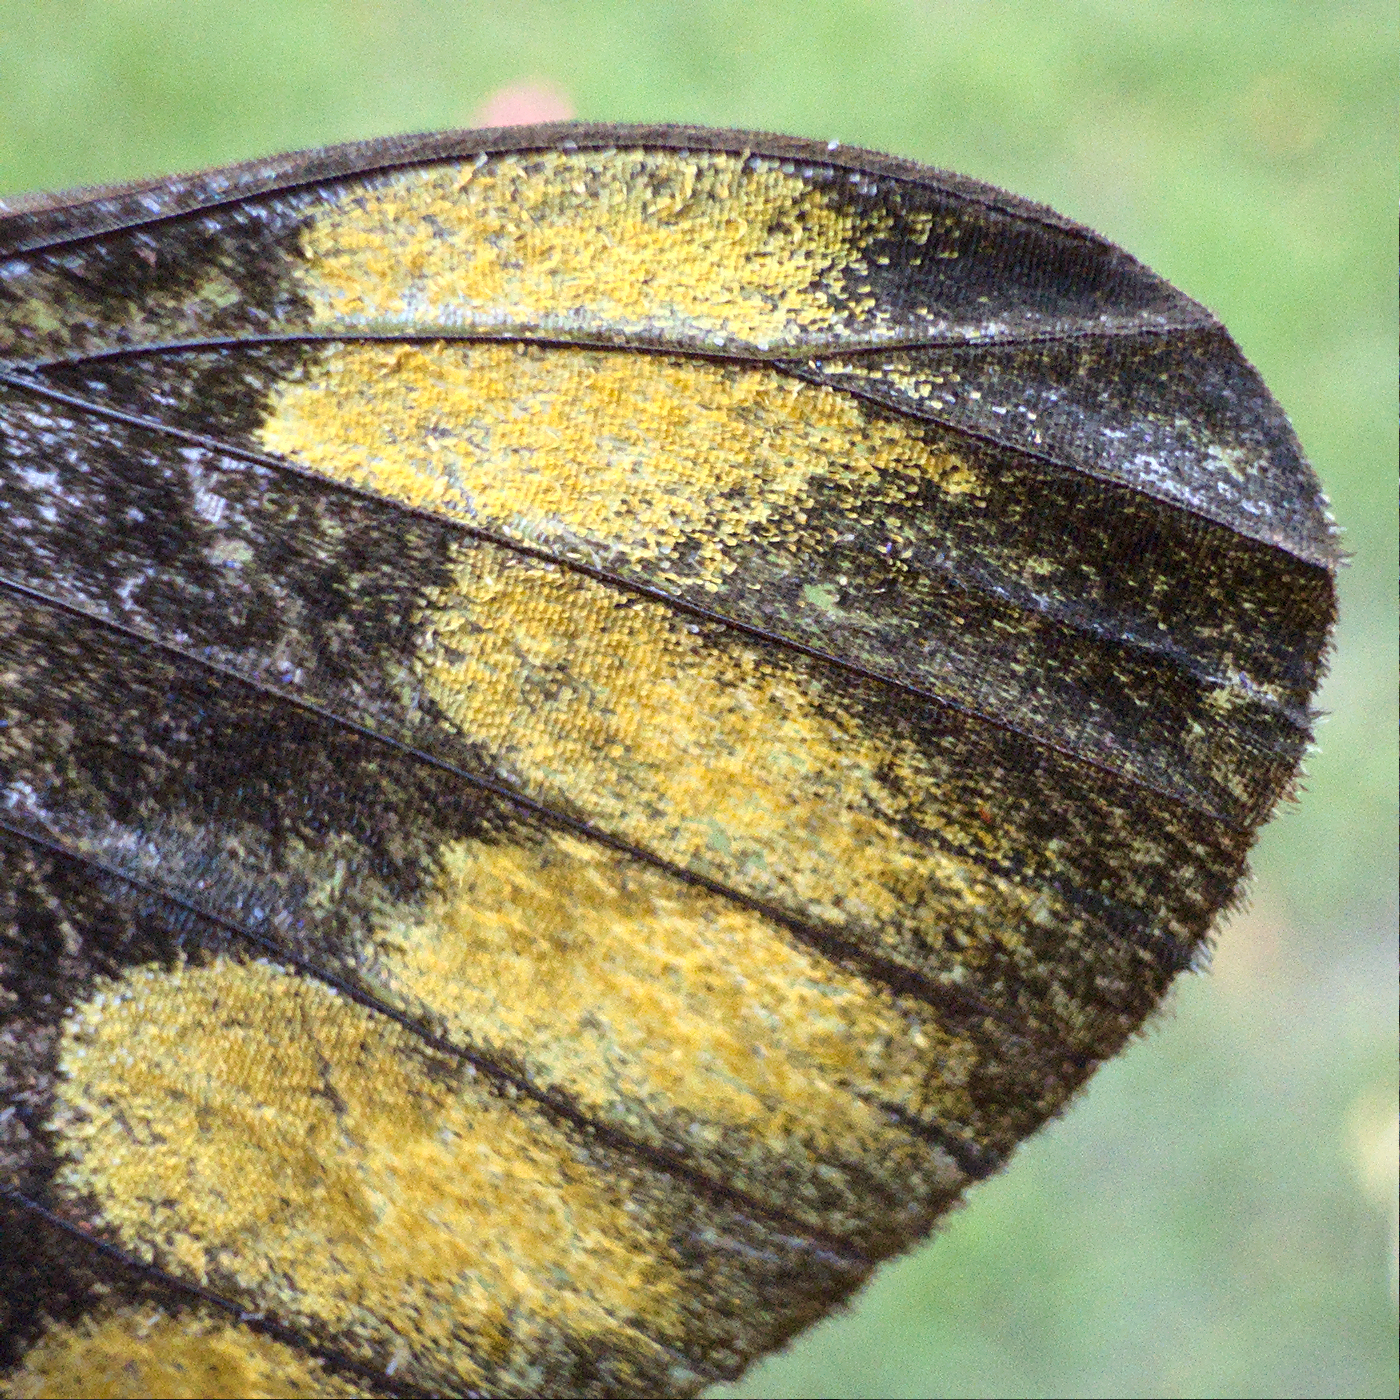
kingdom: Animalia
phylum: Arthropoda
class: Insecta
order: Lepidoptera
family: Pieridae
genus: Delias
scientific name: Delias harpalyce
